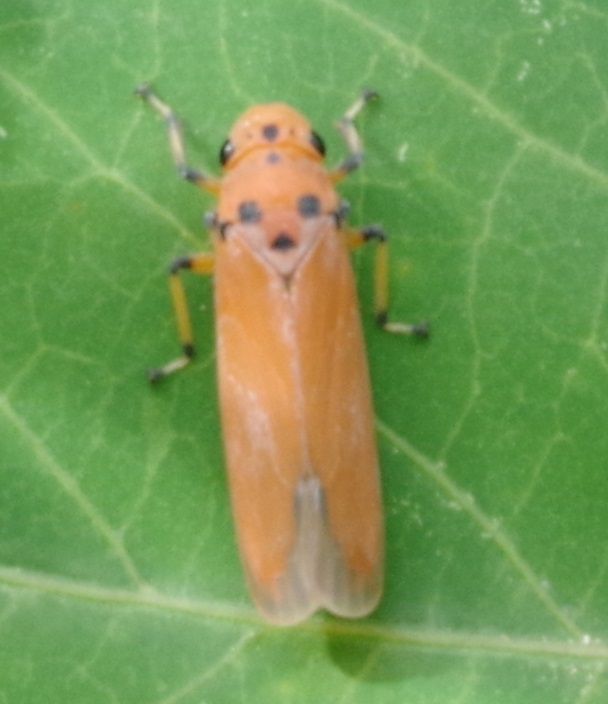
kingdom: Animalia
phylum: Arthropoda
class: Insecta
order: Hemiptera
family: Cicadellidae
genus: Bothrogonia
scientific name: Bothrogonia addita
